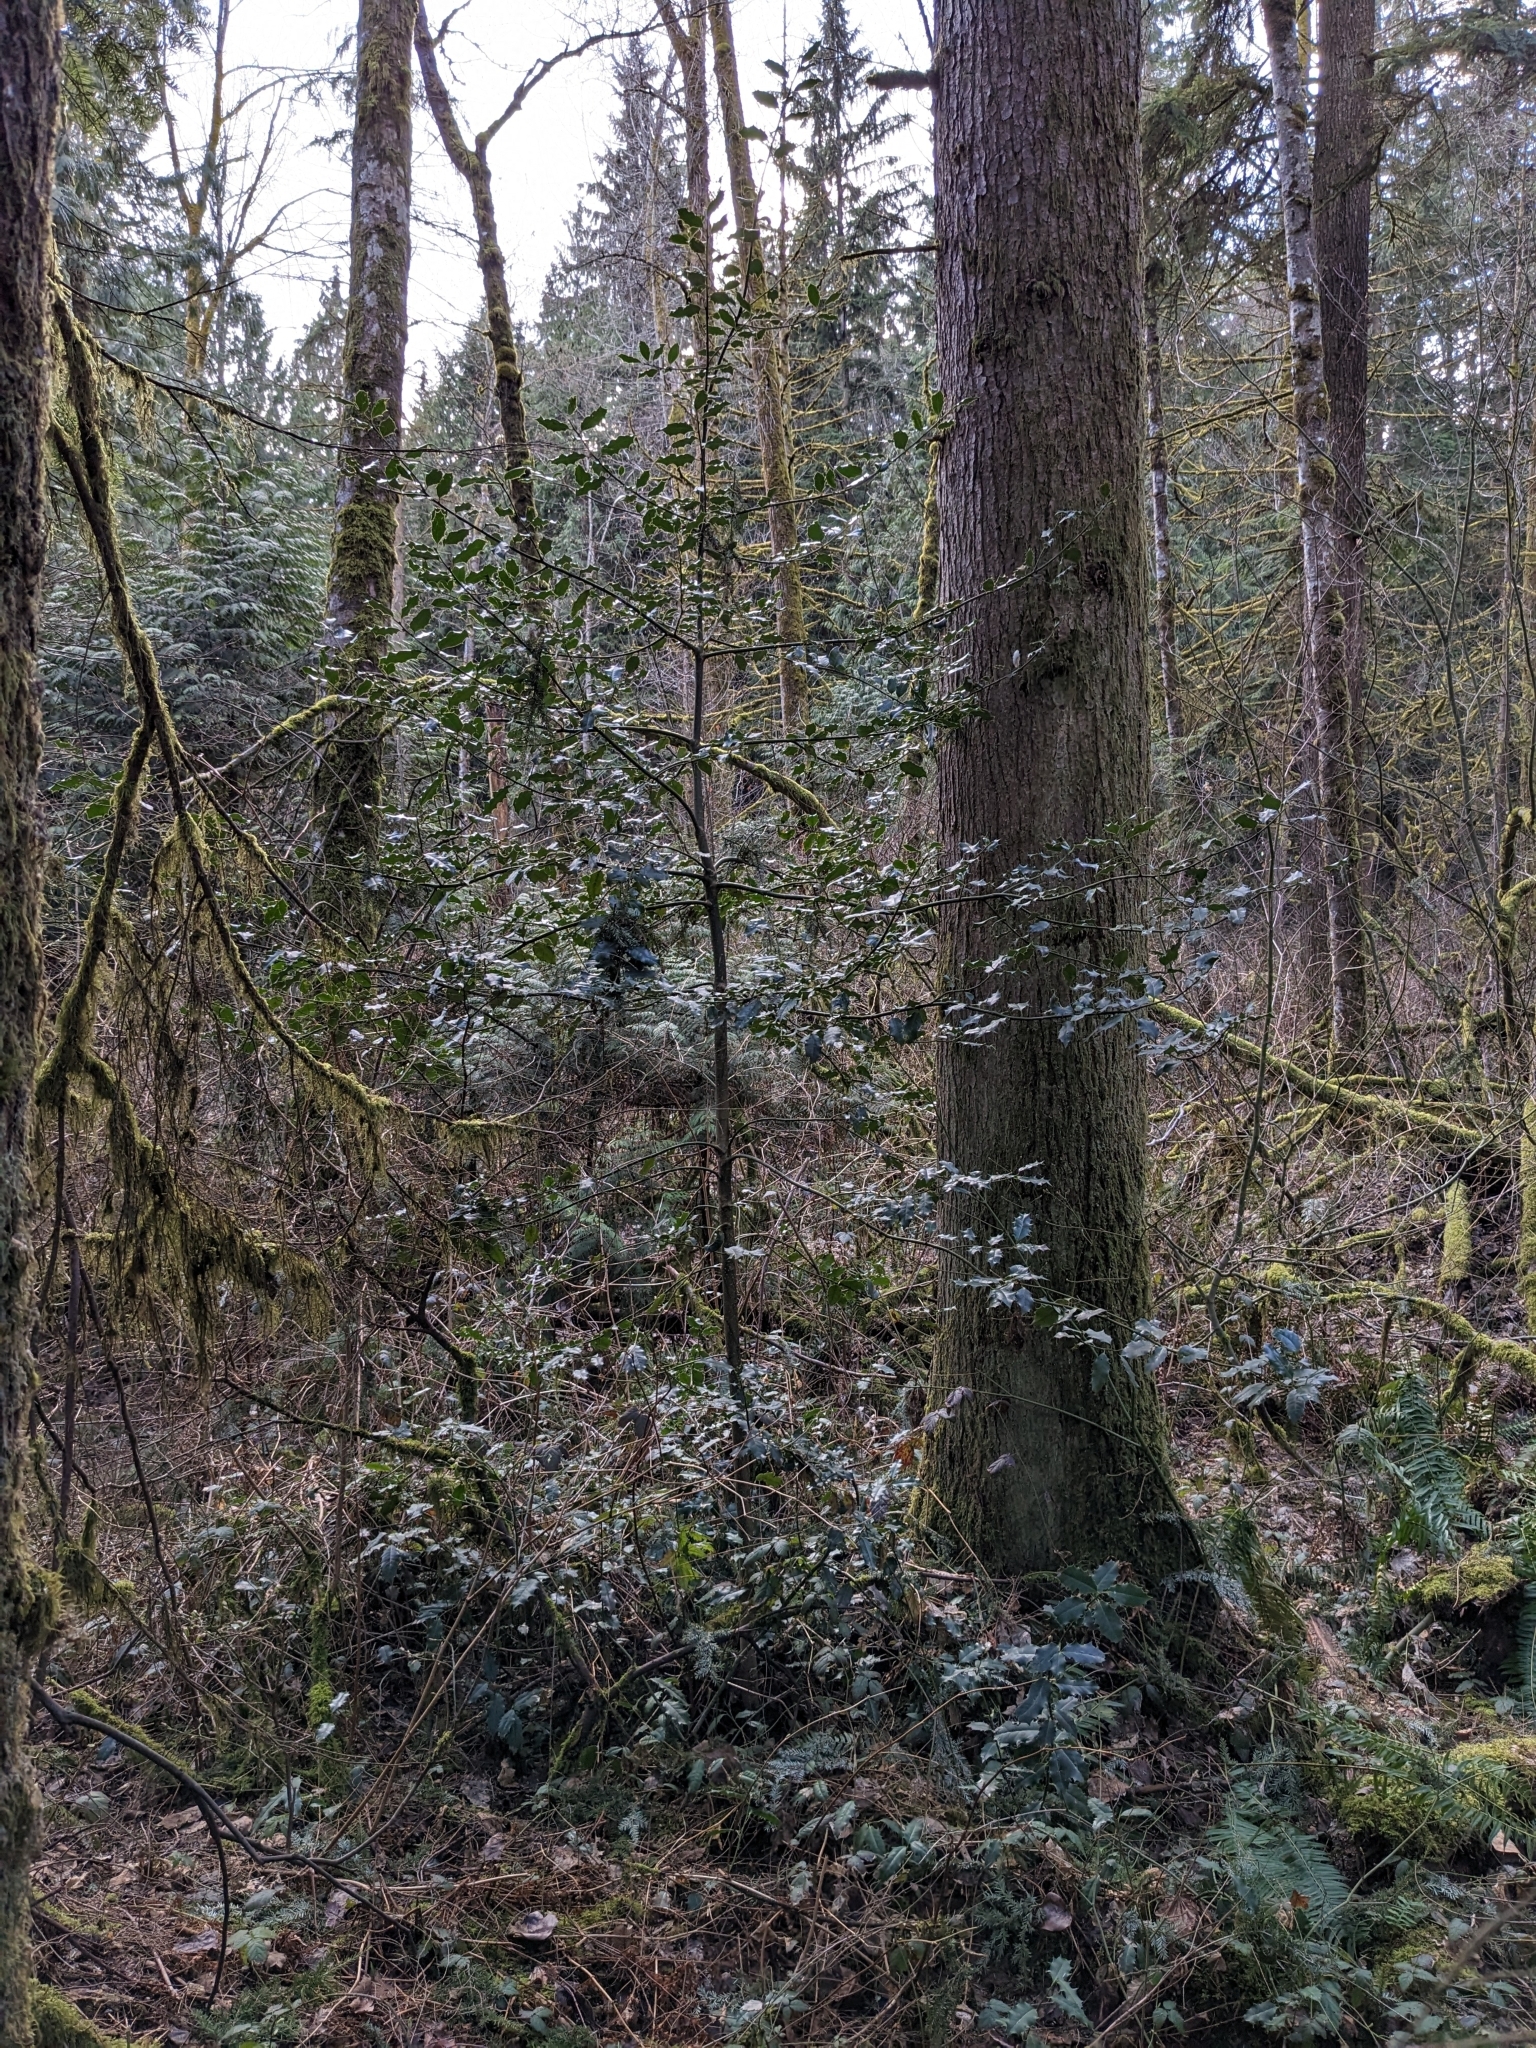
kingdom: Plantae
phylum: Tracheophyta
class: Magnoliopsida
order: Aquifoliales
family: Aquifoliaceae
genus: Ilex
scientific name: Ilex aquifolium
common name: English holly
